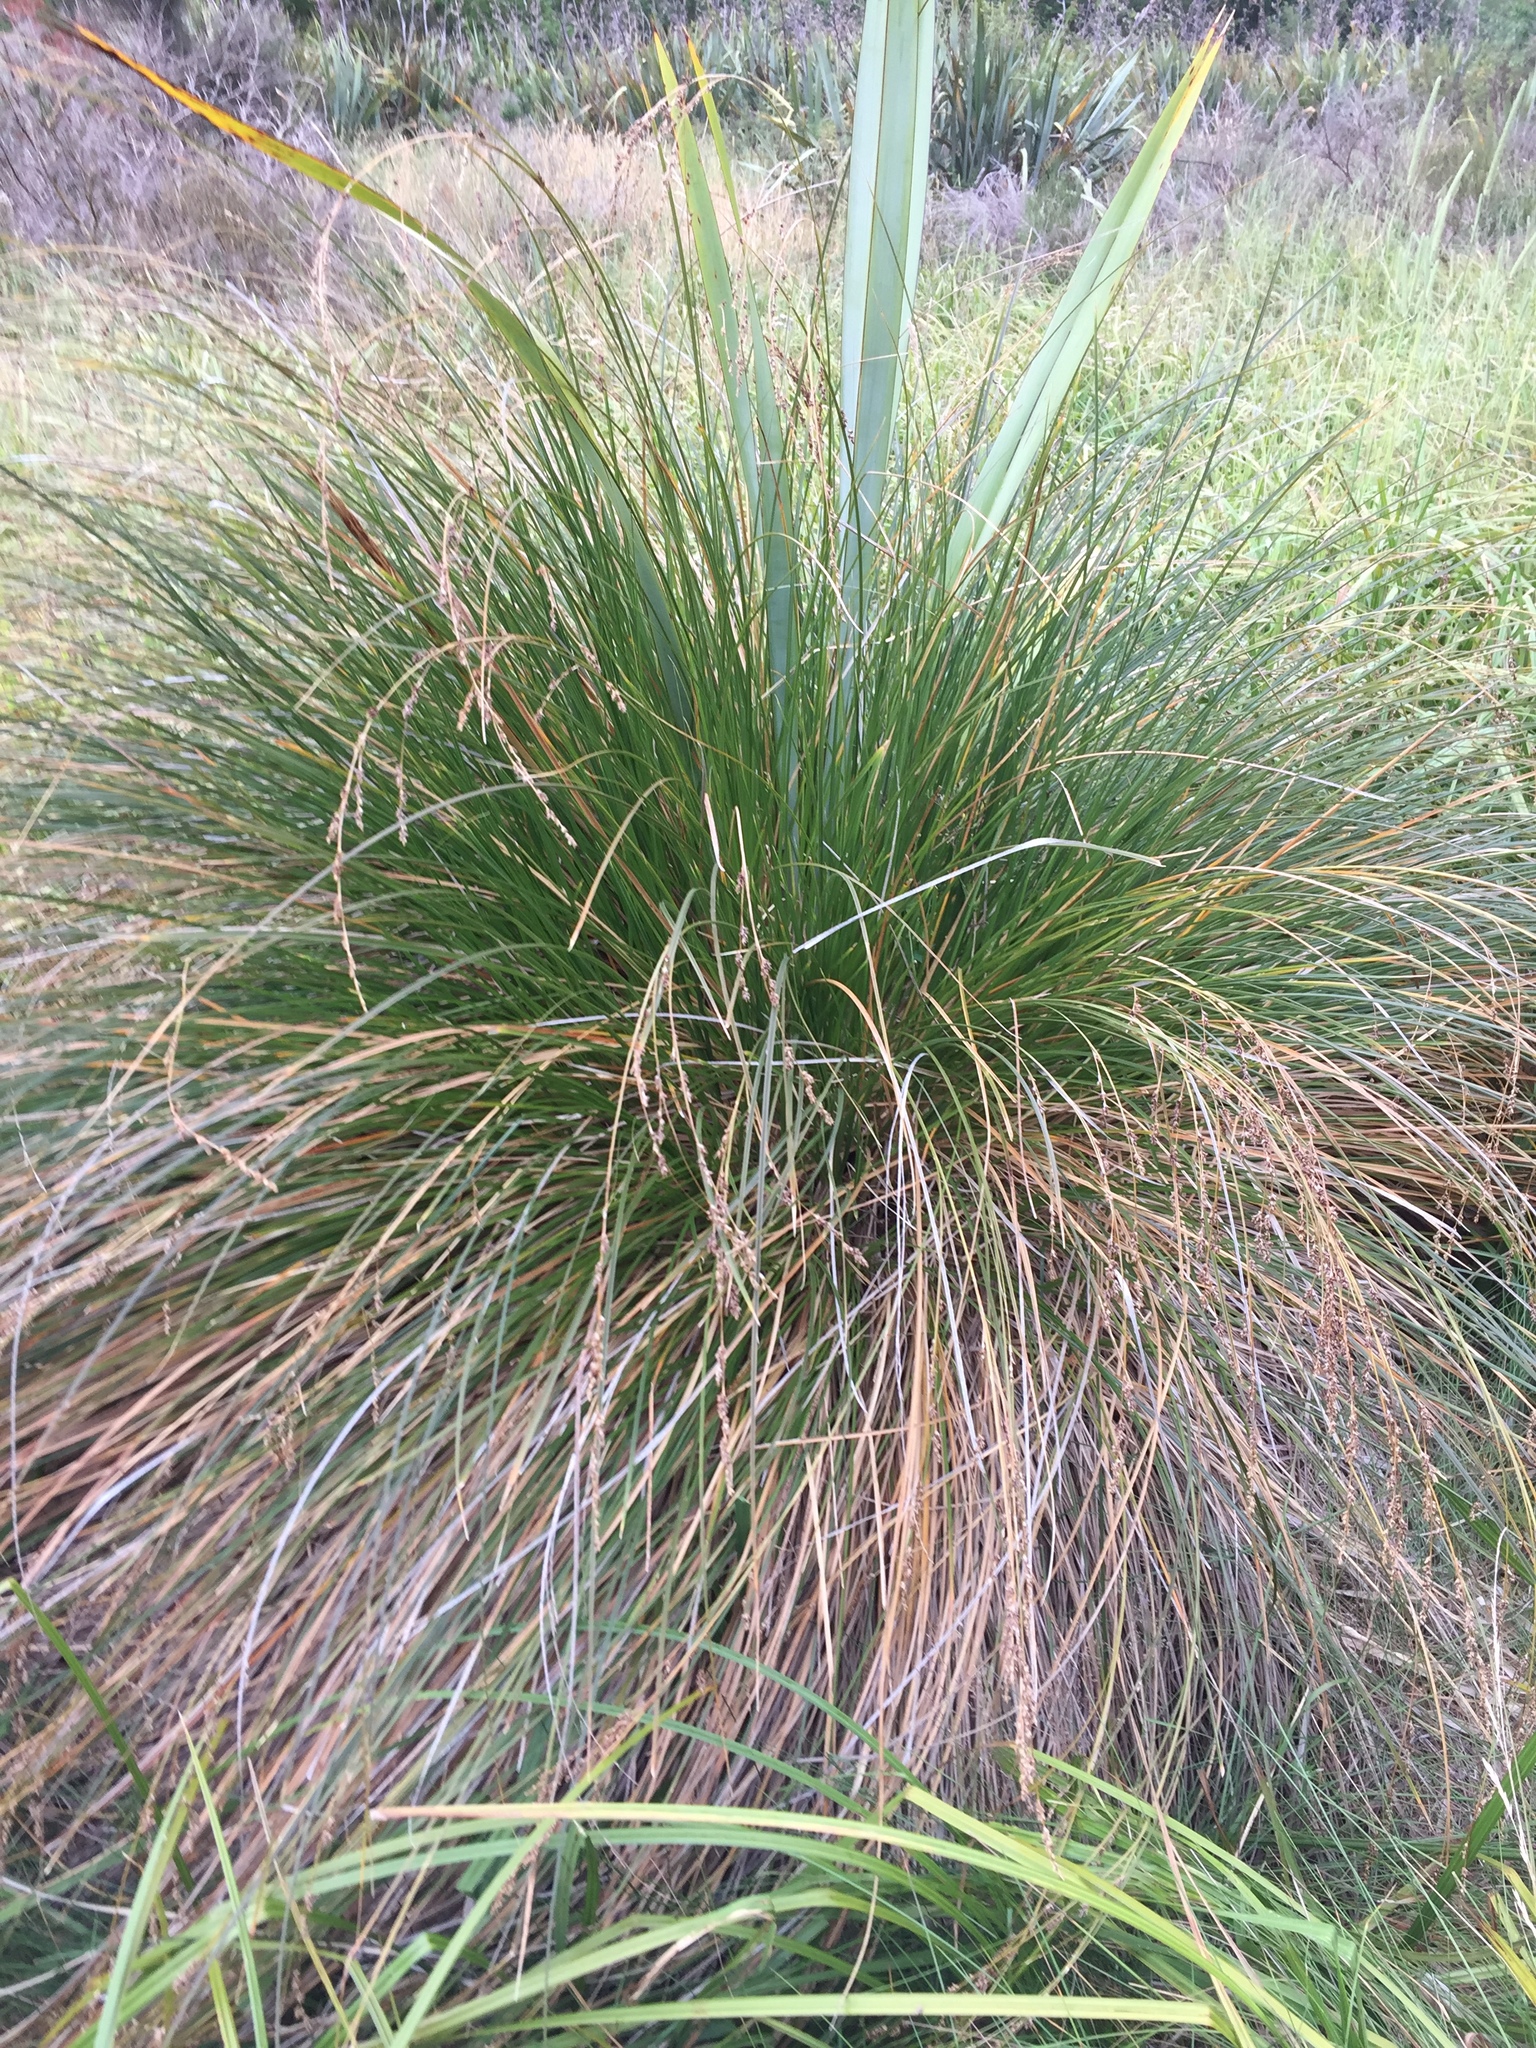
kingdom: Plantae
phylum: Tracheophyta
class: Liliopsida
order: Poales
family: Cyperaceae
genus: Carex
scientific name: Carex secta
